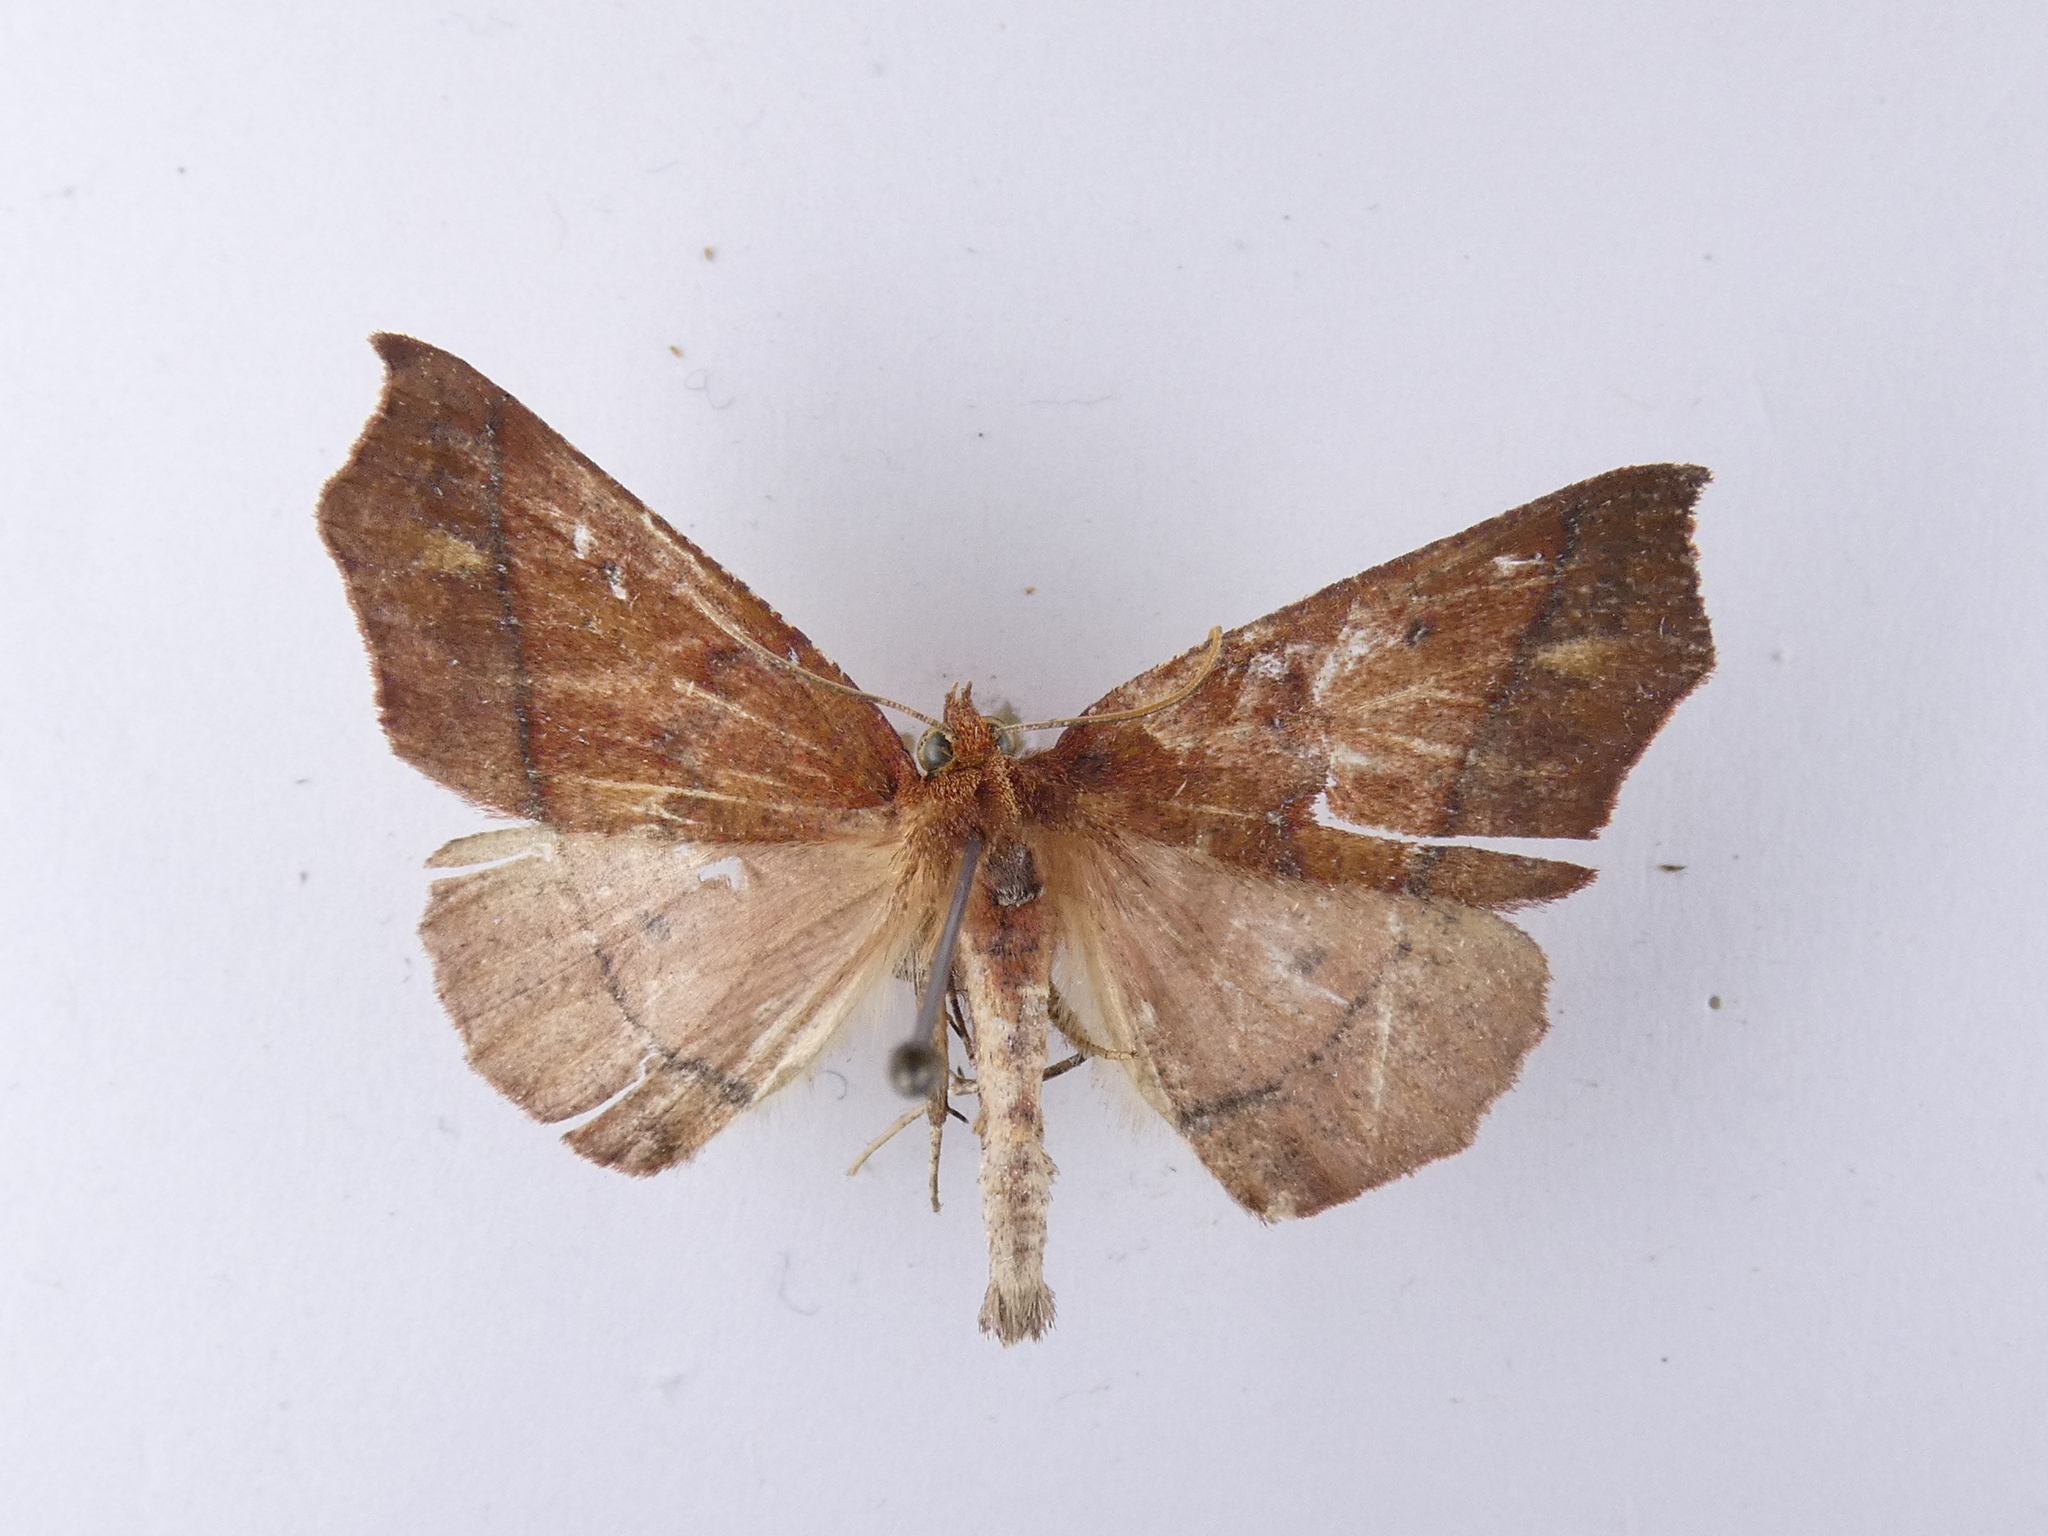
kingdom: Animalia
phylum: Arthropoda
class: Insecta
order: Lepidoptera
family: Geometridae
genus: Ischalis
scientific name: Ischalis nelsonaria
